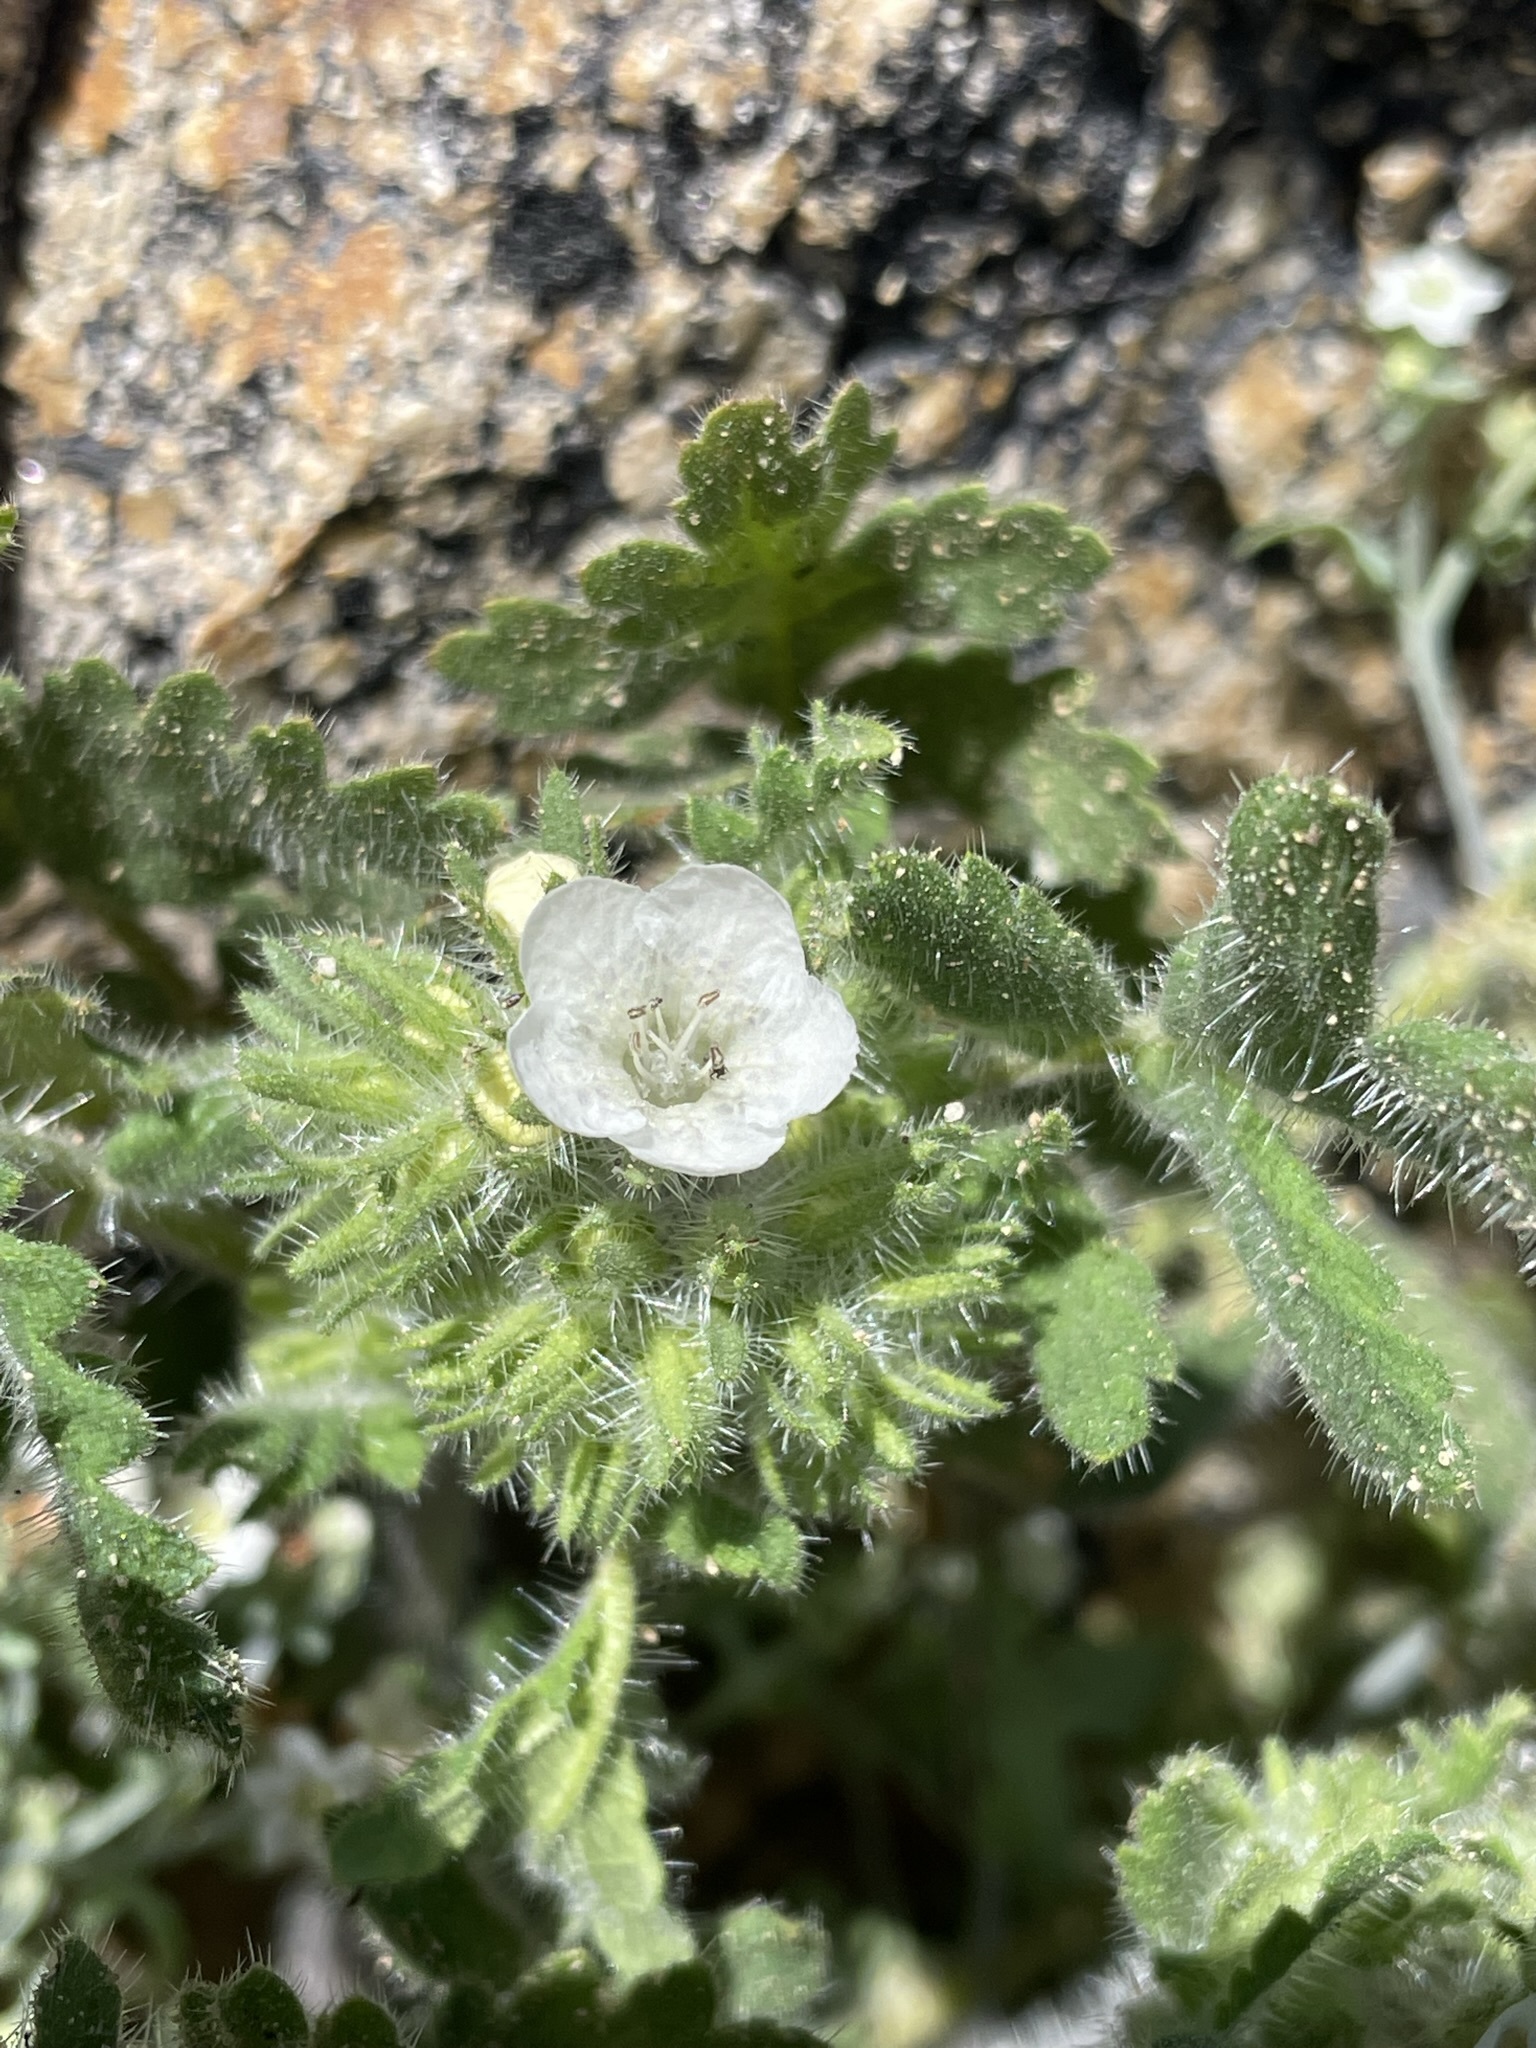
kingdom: Plantae
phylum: Tracheophyta
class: Magnoliopsida
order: Boraginales
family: Hydrophyllaceae
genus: Phacelia
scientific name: Phacelia cicutaria
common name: Caterpillar phacelia
